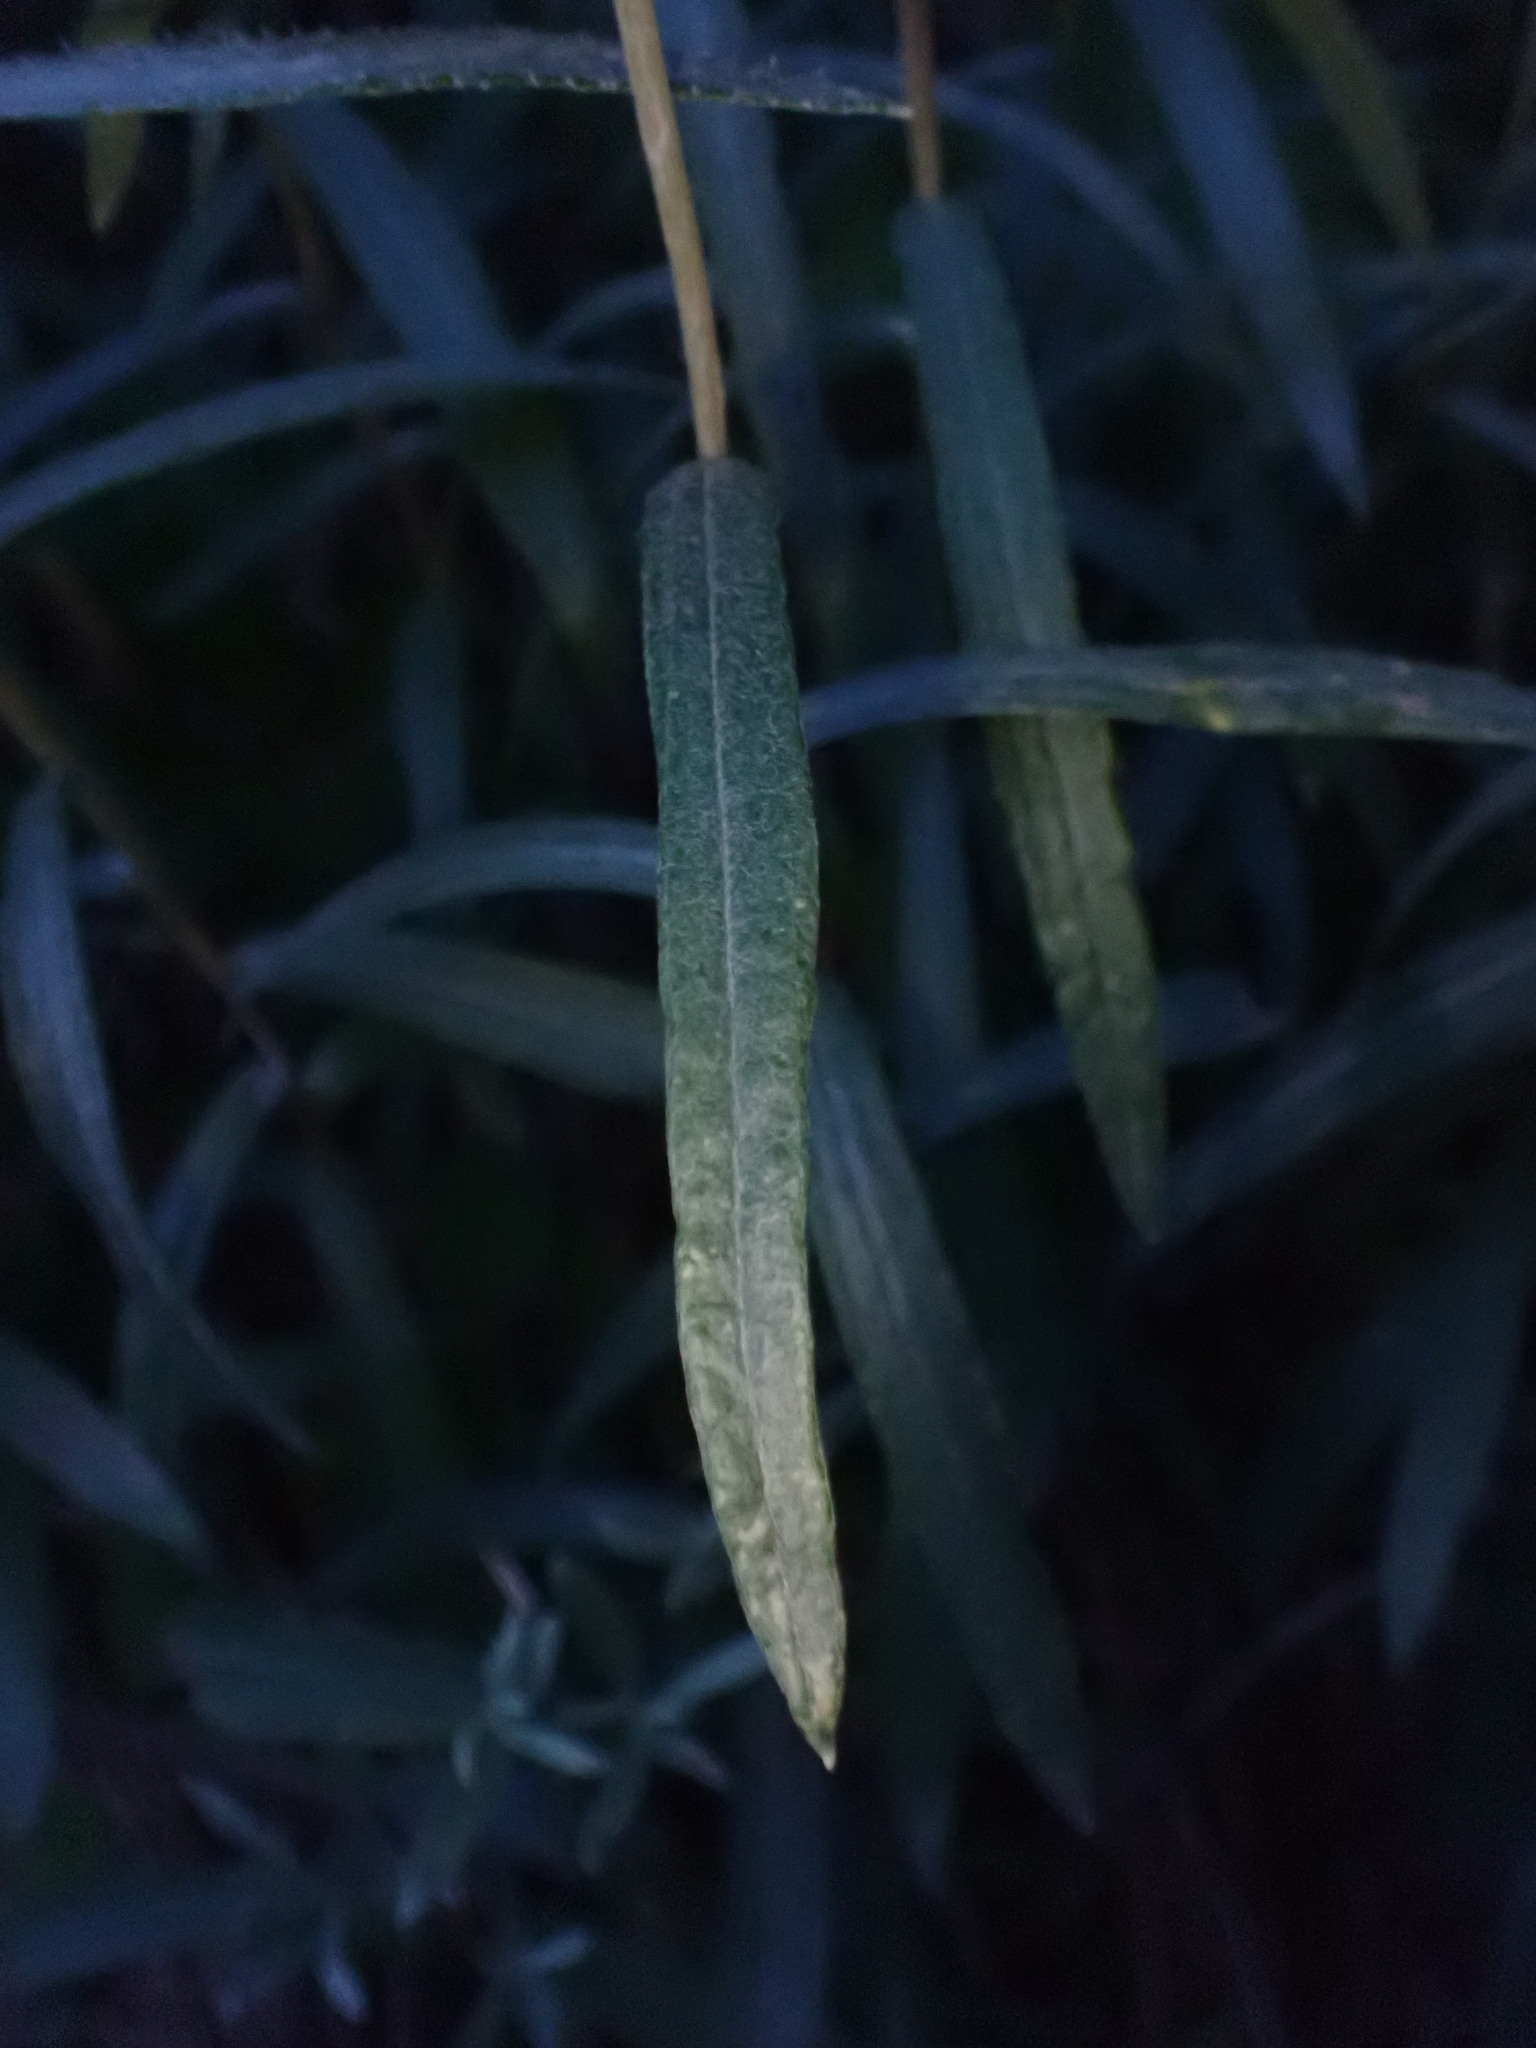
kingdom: Plantae
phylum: Tracheophyta
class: Magnoliopsida
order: Asterales
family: Asteraceae
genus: Anaphalis
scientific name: Anaphalis margaritacea
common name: Pearly everlasting
